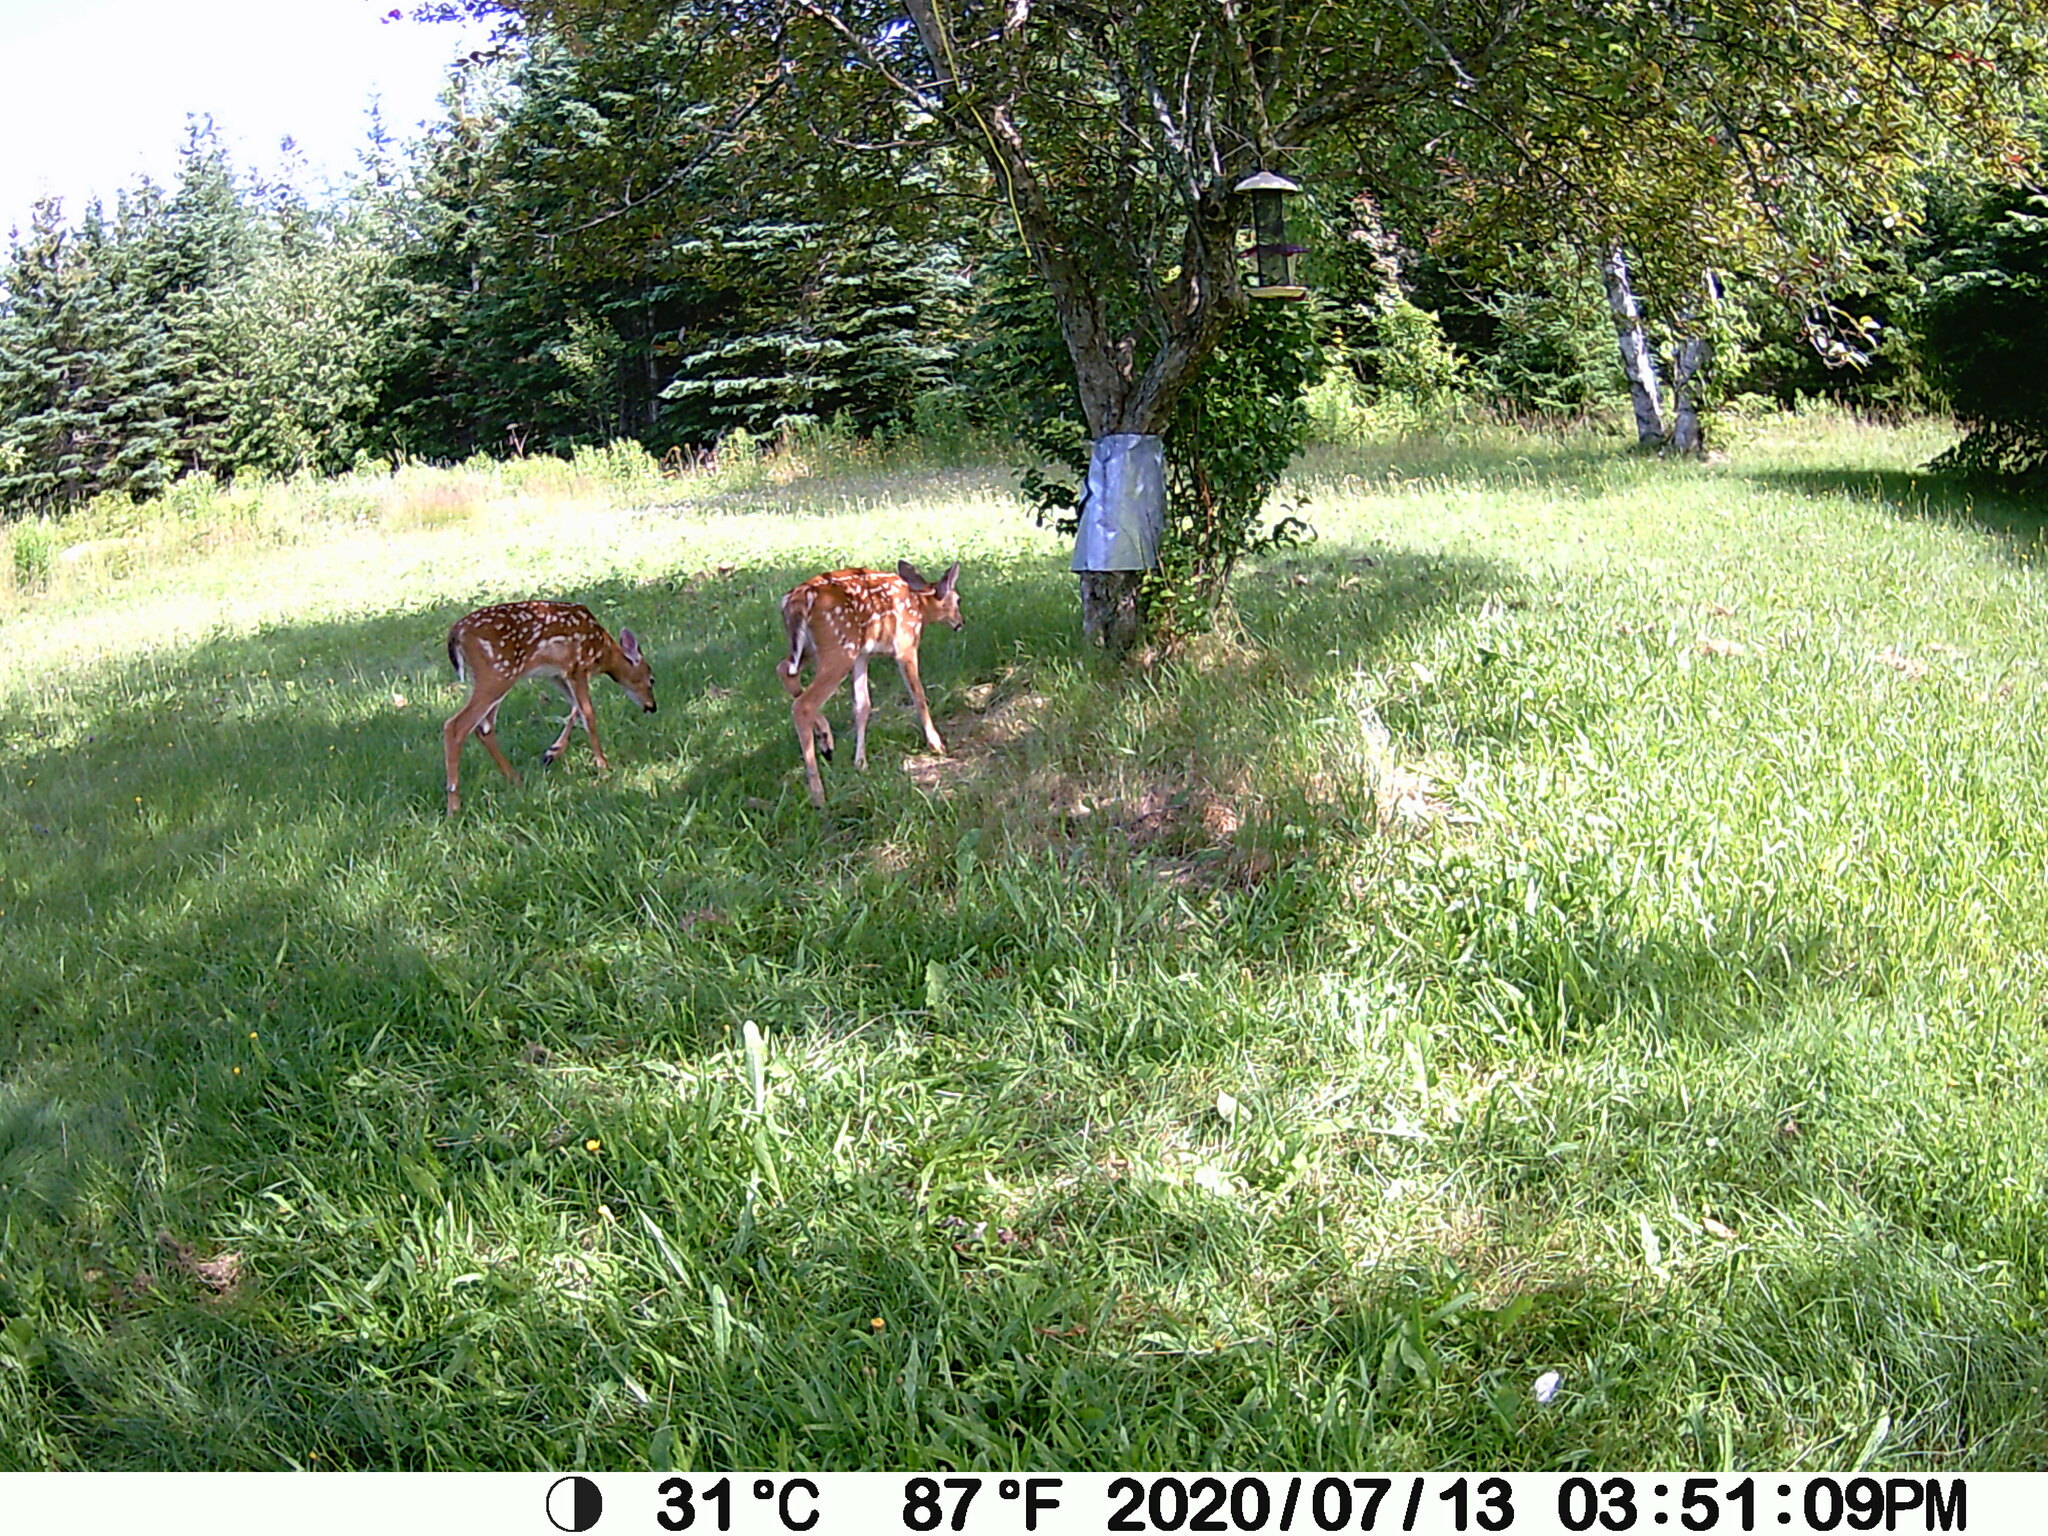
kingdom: Animalia
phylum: Chordata
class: Mammalia
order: Artiodactyla
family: Cervidae
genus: Odocoileus
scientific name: Odocoileus virginianus
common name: White-tailed deer
